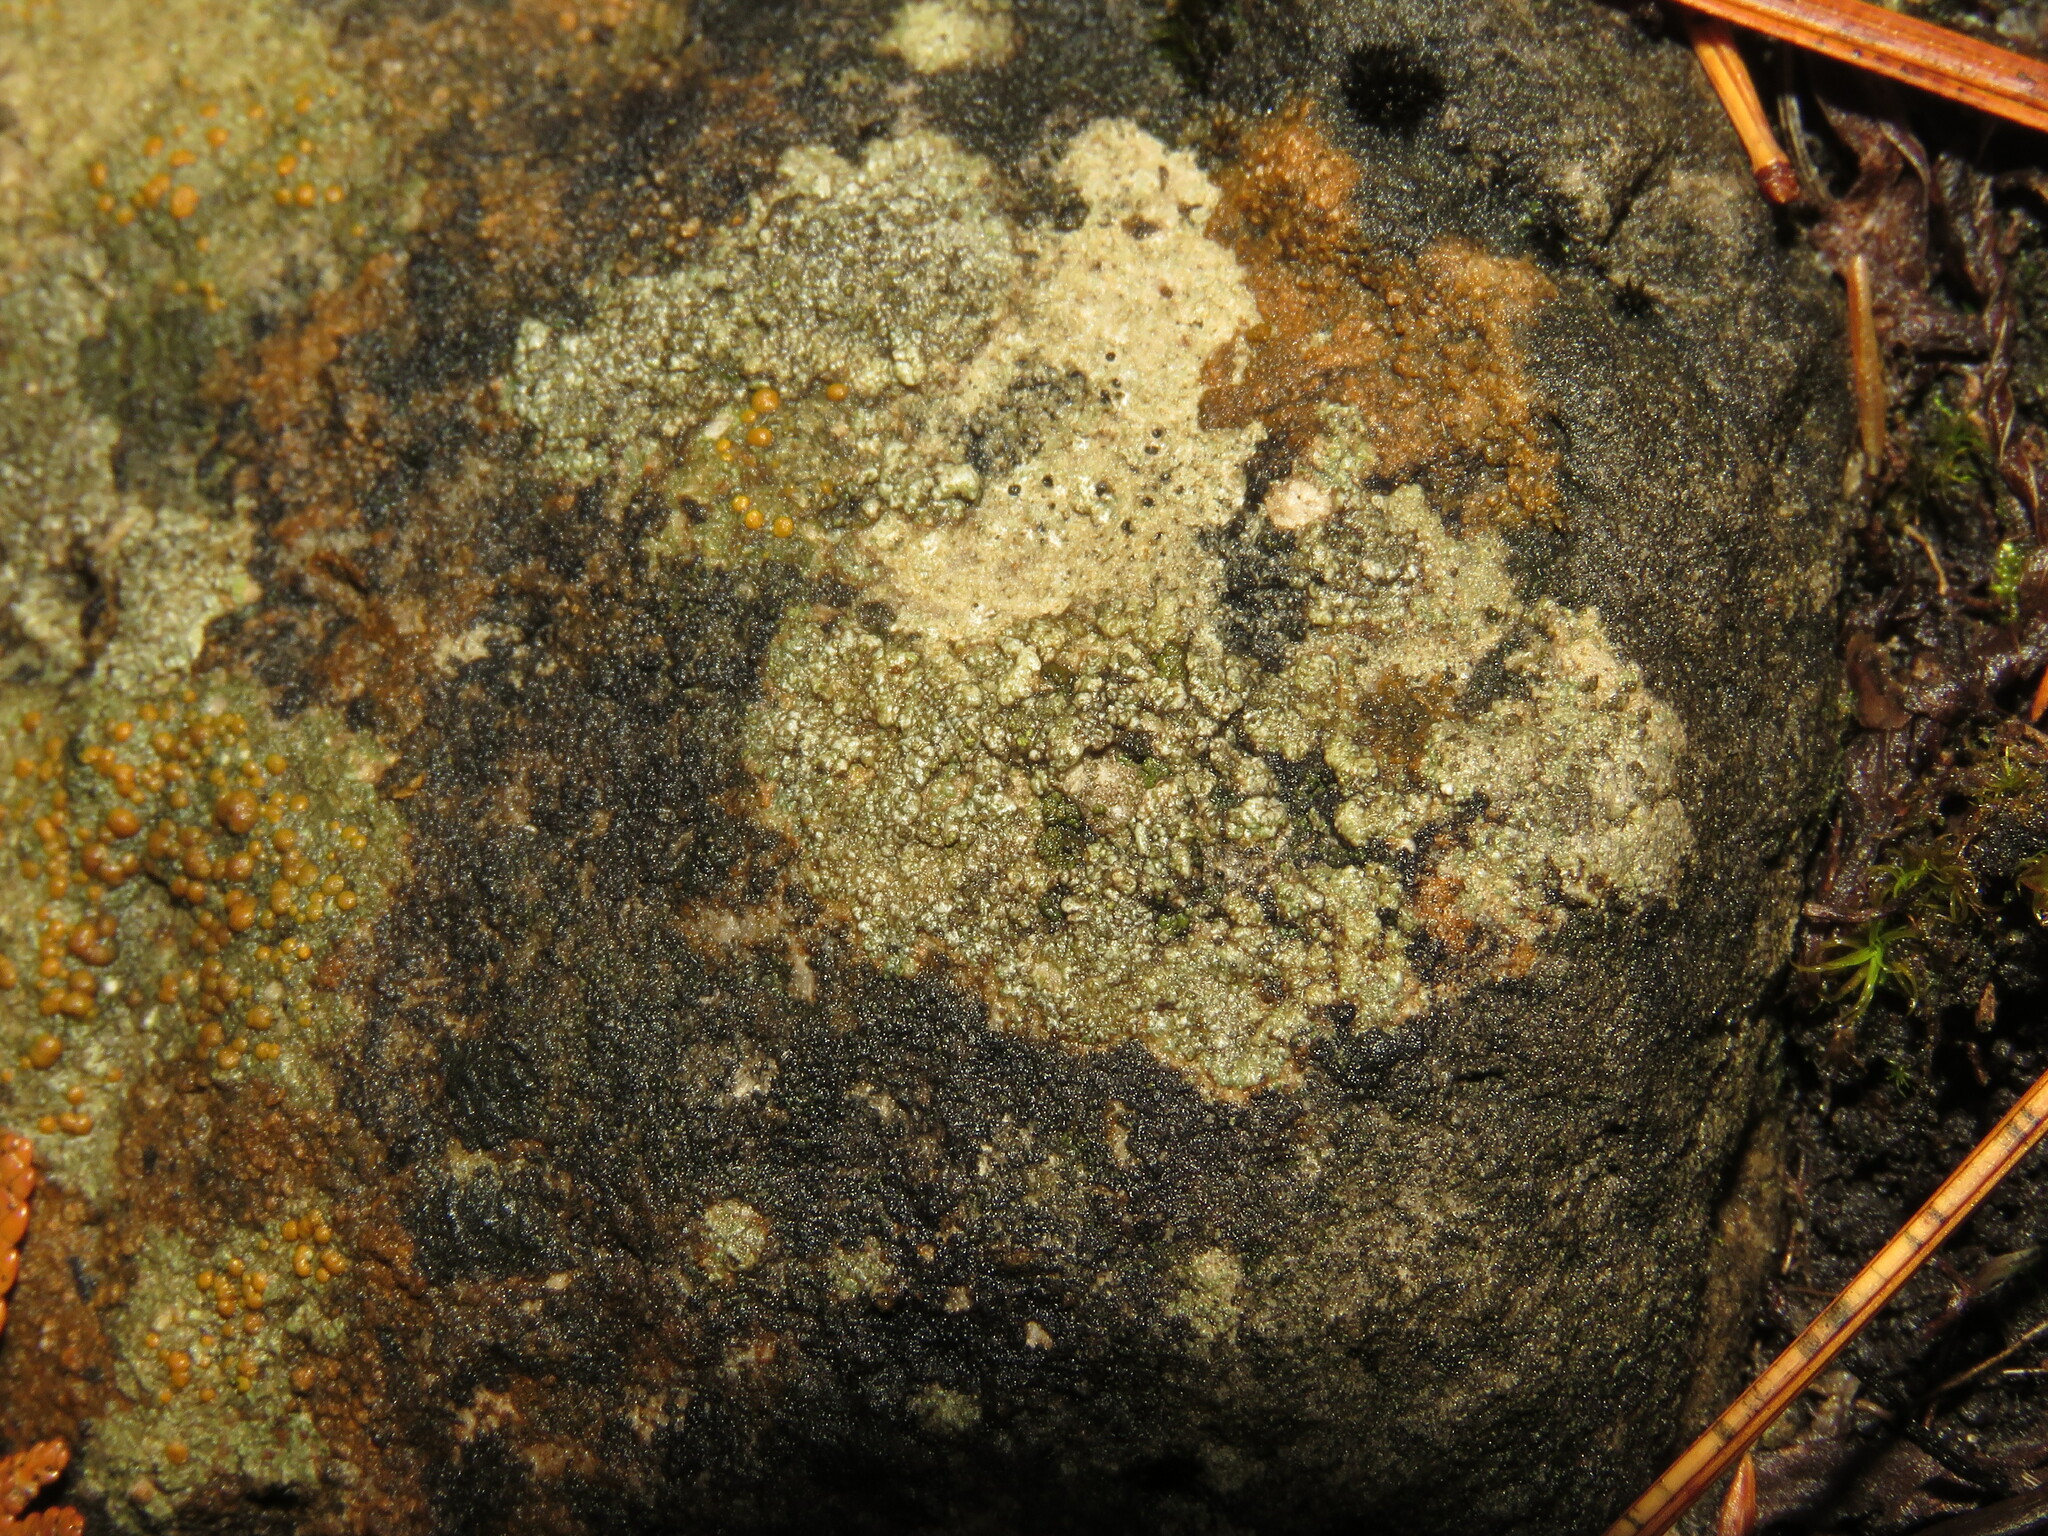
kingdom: Fungi
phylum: Ascomycota
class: Lecanoromycetes
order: Lecanorales
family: Psoraceae
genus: Protoblastenia
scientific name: Protoblastenia rupestris
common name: Chewing gum lichen
